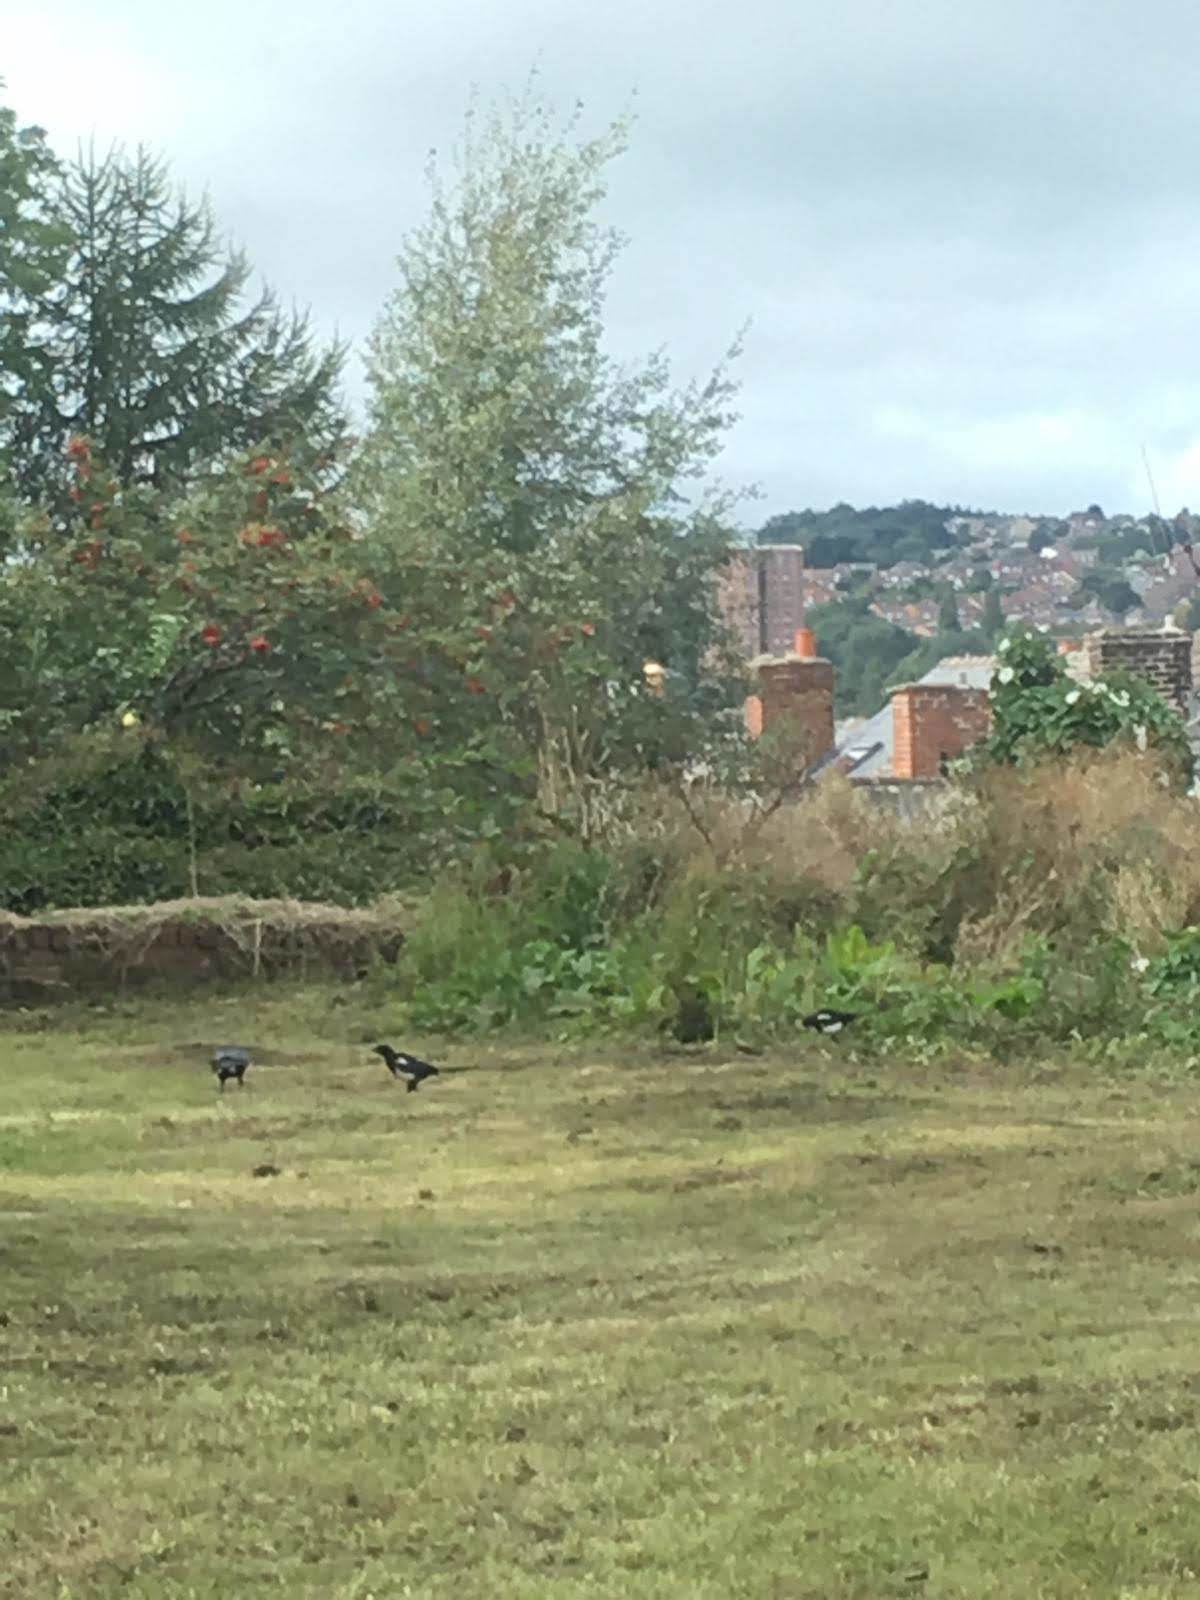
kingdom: Animalia
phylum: Chordata
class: Aves
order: Passeriformes
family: Corvidae
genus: Pica
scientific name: Pica pica
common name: Eurasian magpie
